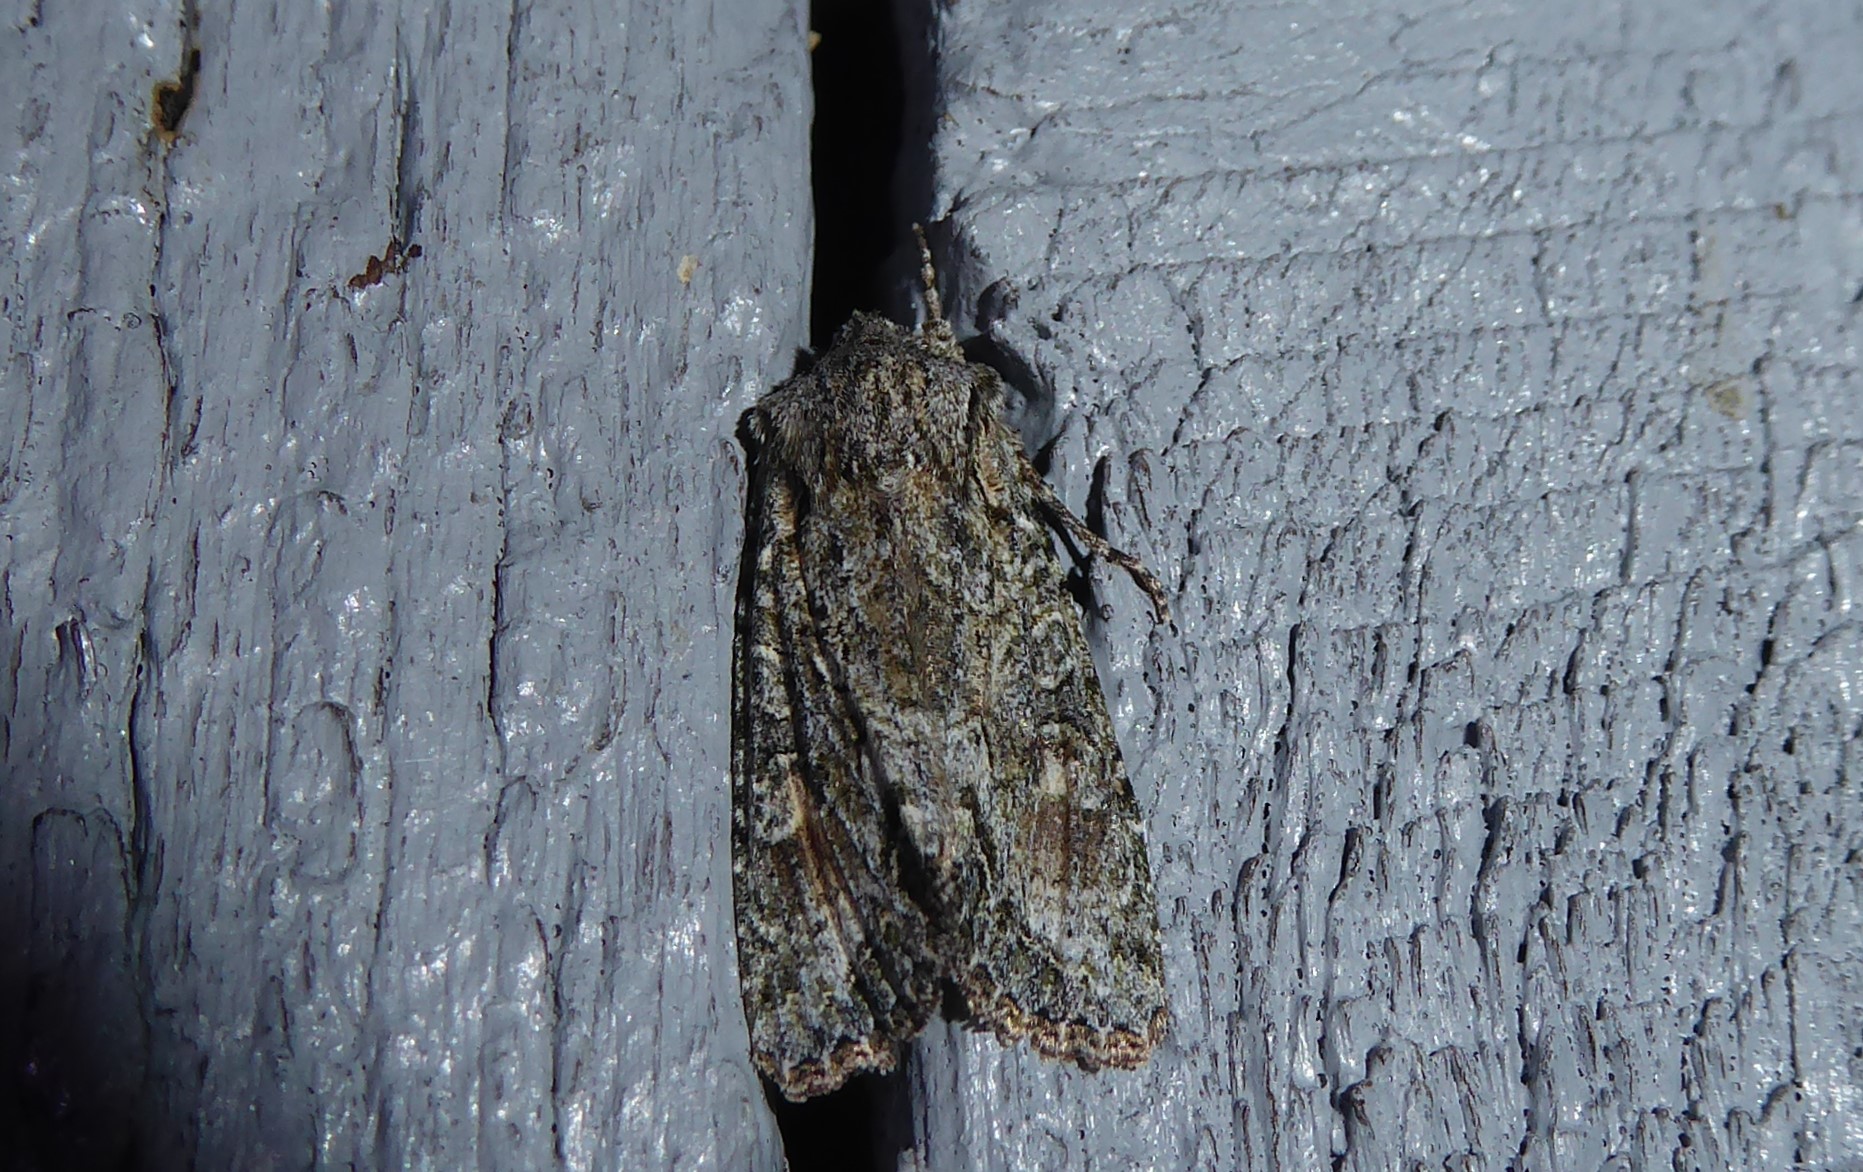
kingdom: Animalia
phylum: Arthropoda
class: Insecta
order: Lepidoptera
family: Noctuidae
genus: Ichneutica
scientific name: Ichneutica mutans
